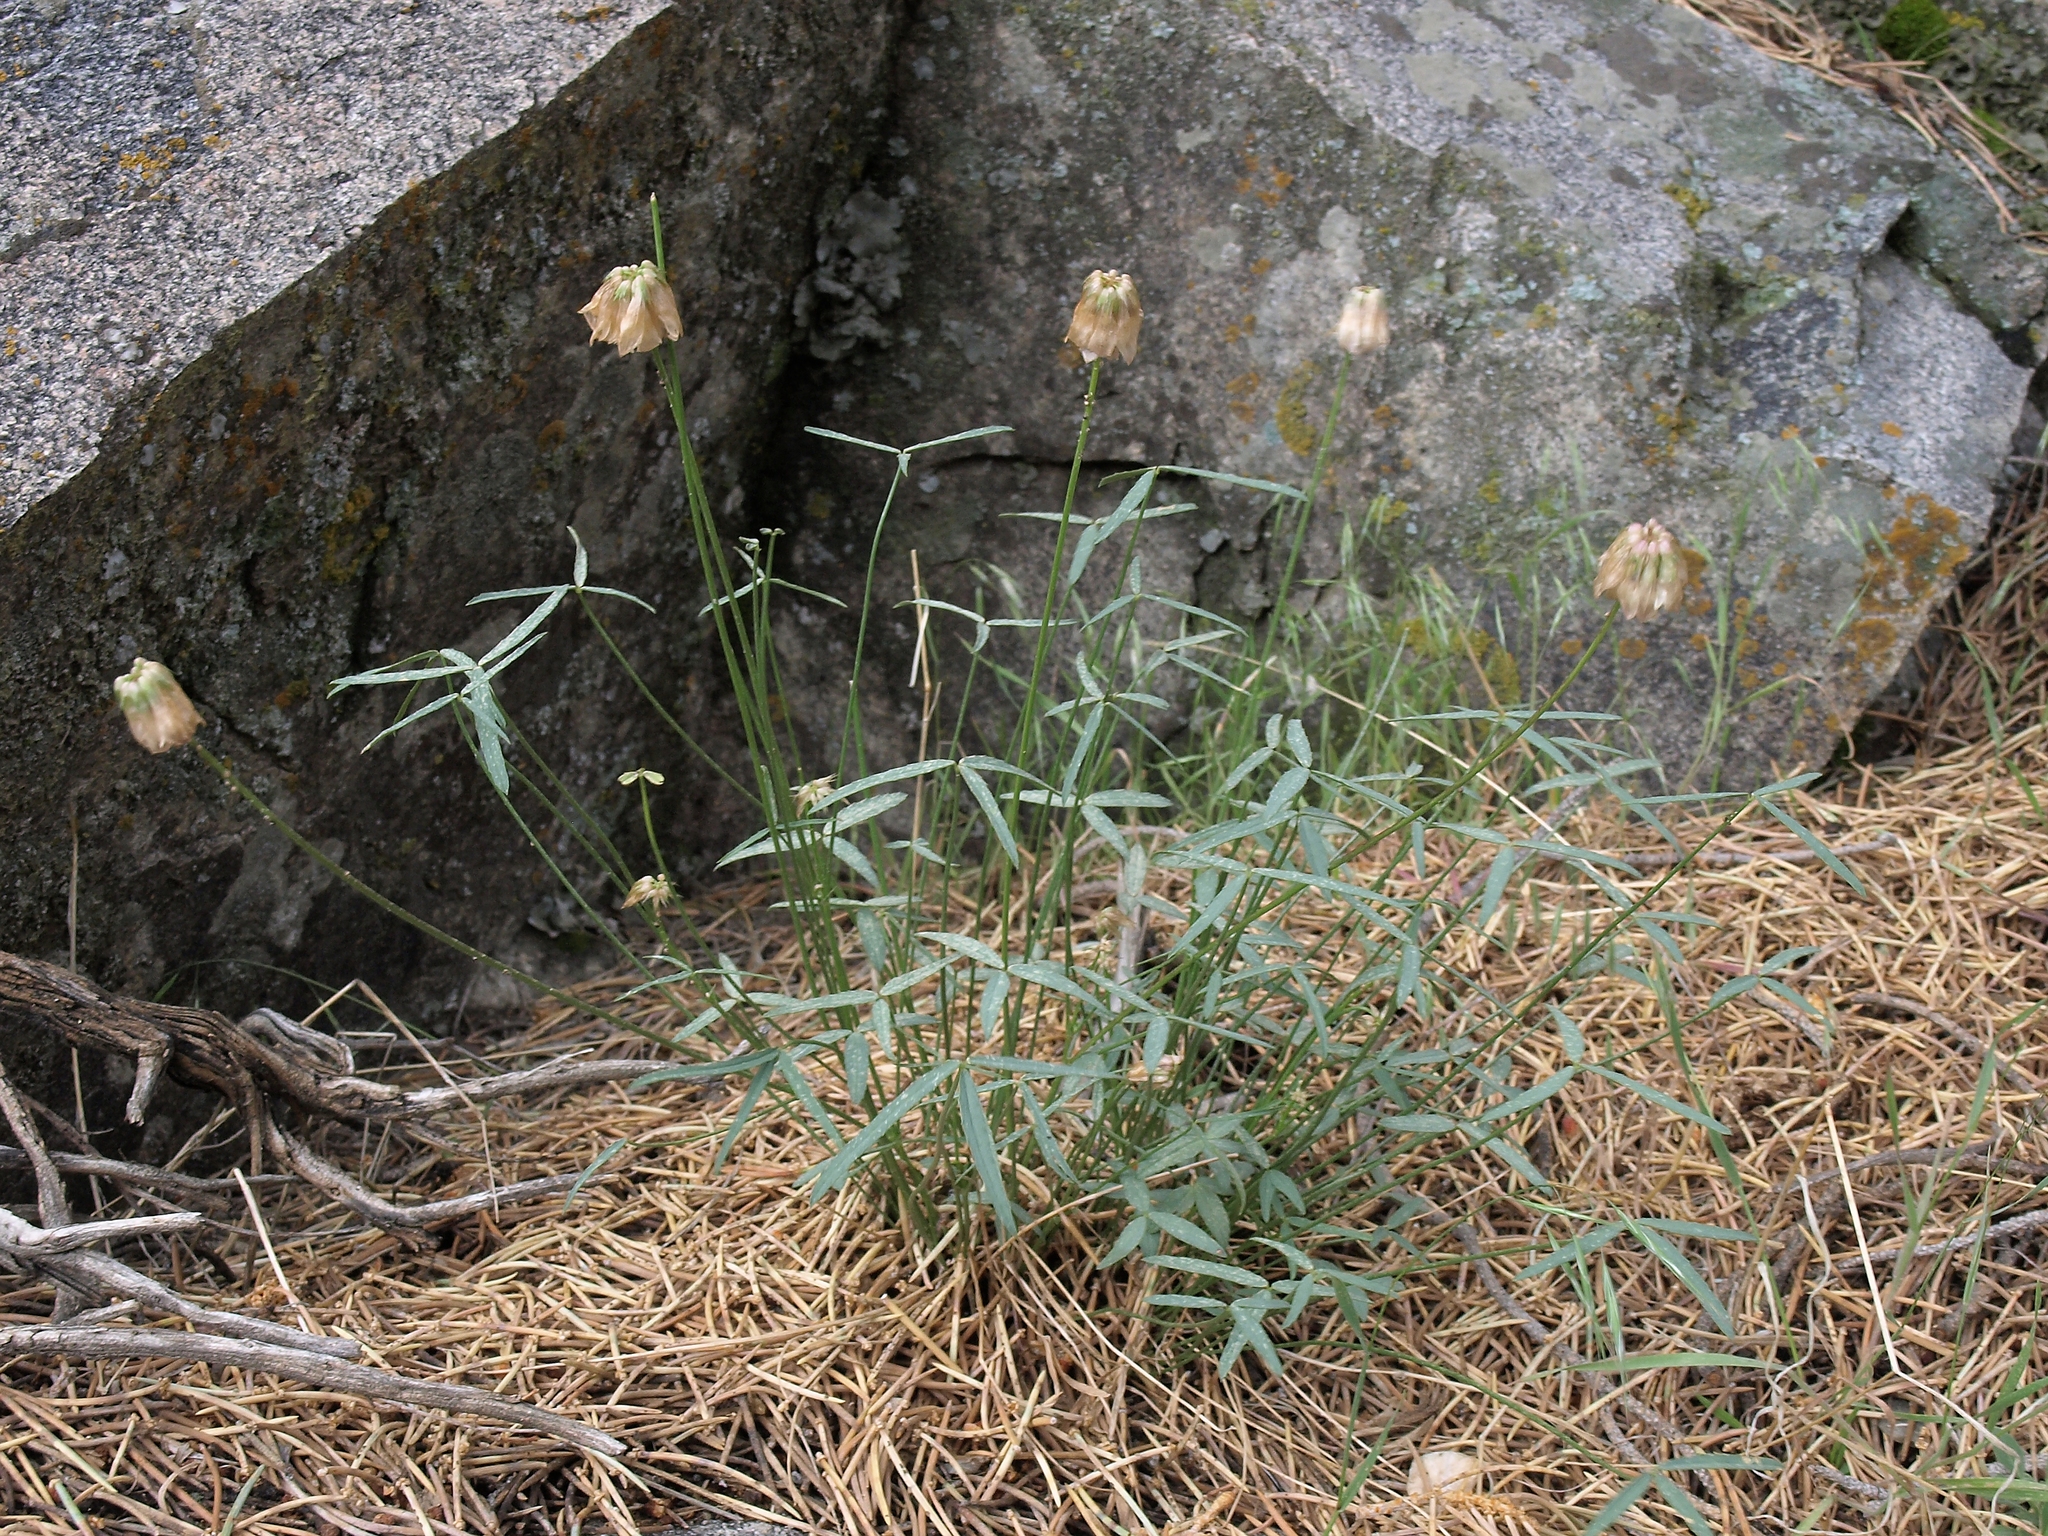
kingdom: Plantae
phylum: Tracheophyta
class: Magnoliopsida
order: Fabales
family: Fabaceae
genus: Trifolium
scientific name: Trifolium dedeckerae
